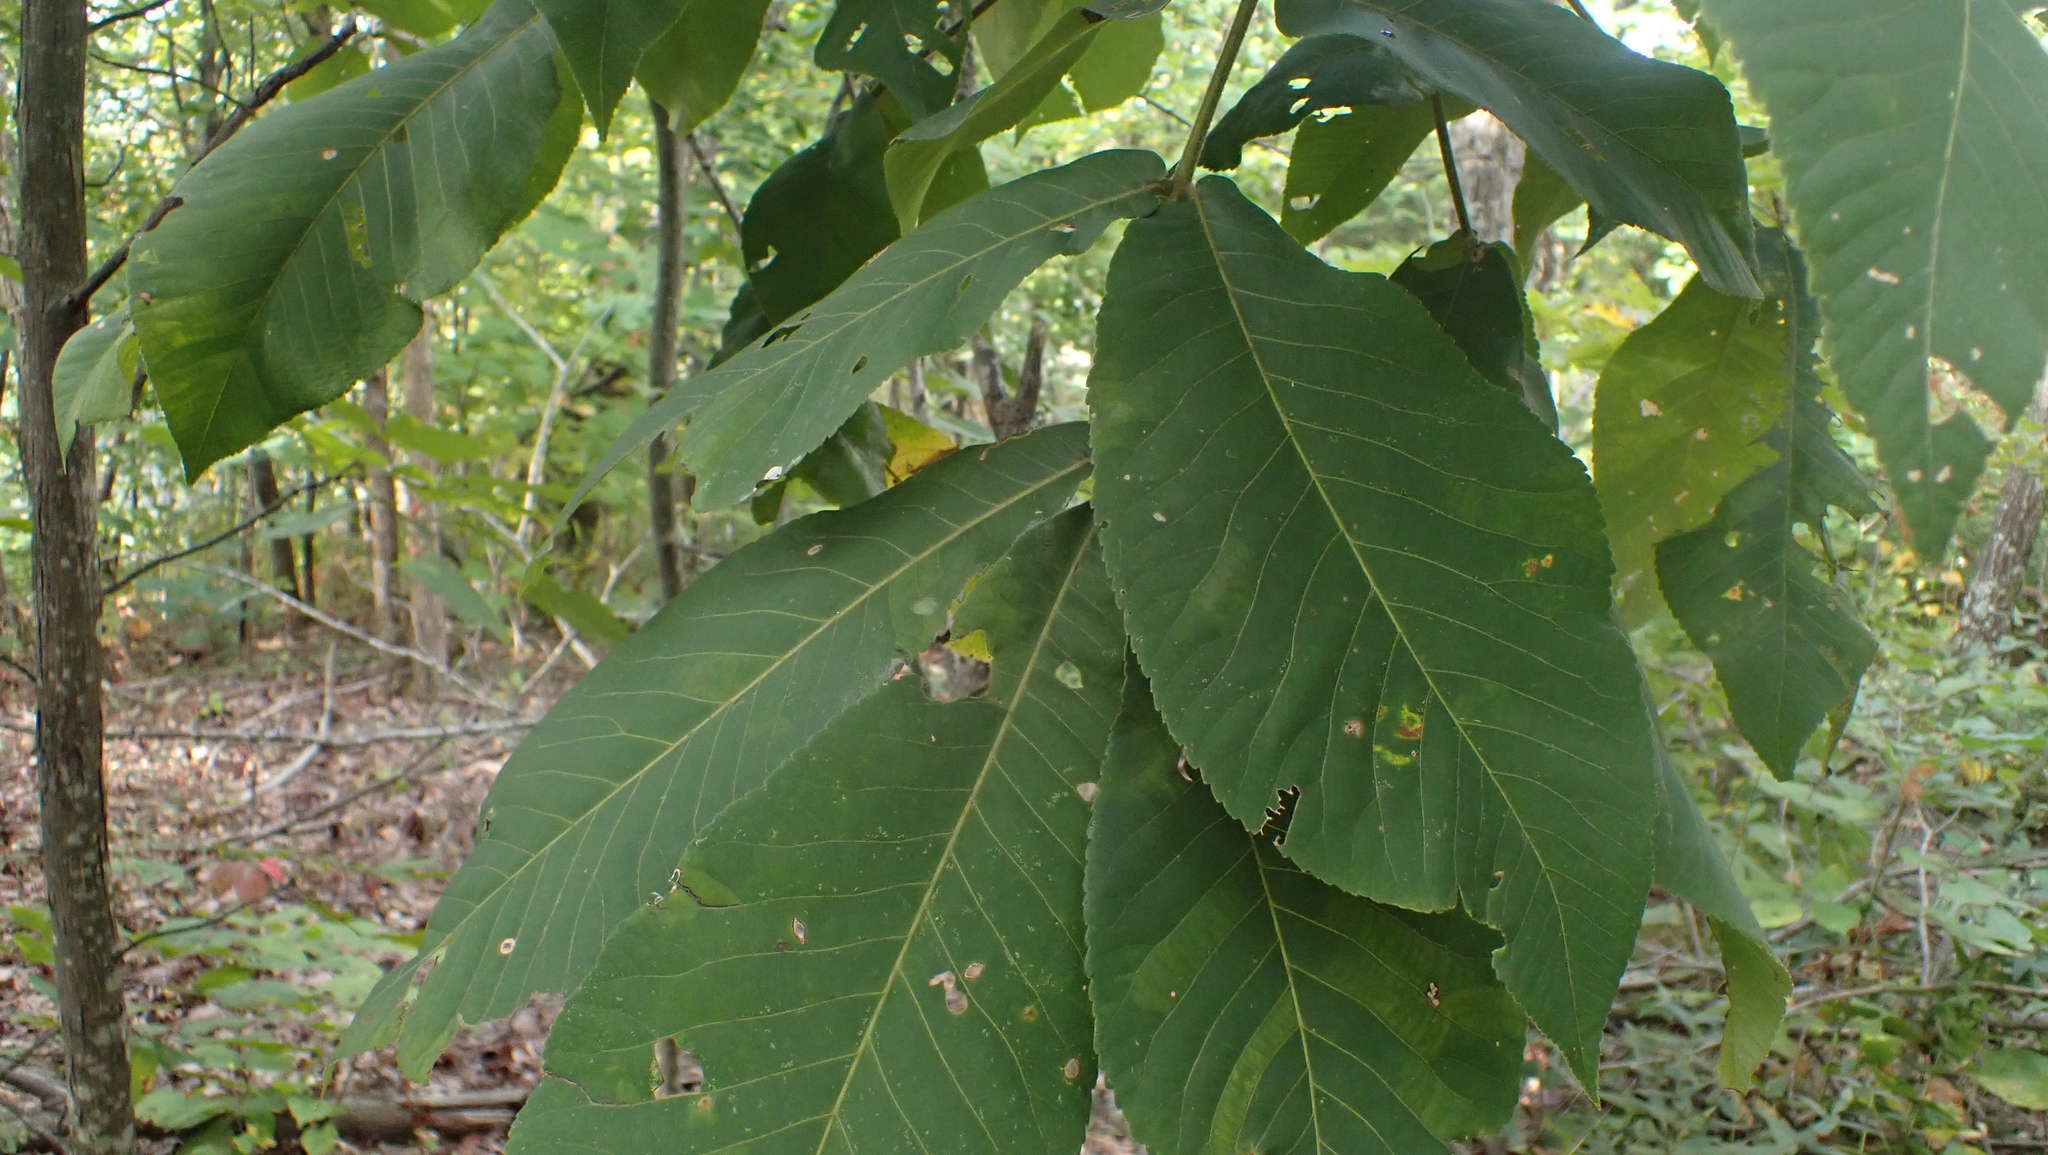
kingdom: Animalia
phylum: Arthropoda
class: Insecta
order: Diptera
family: Cecidomyiidae
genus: Caryomyia
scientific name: Caryomyia viscidolium
